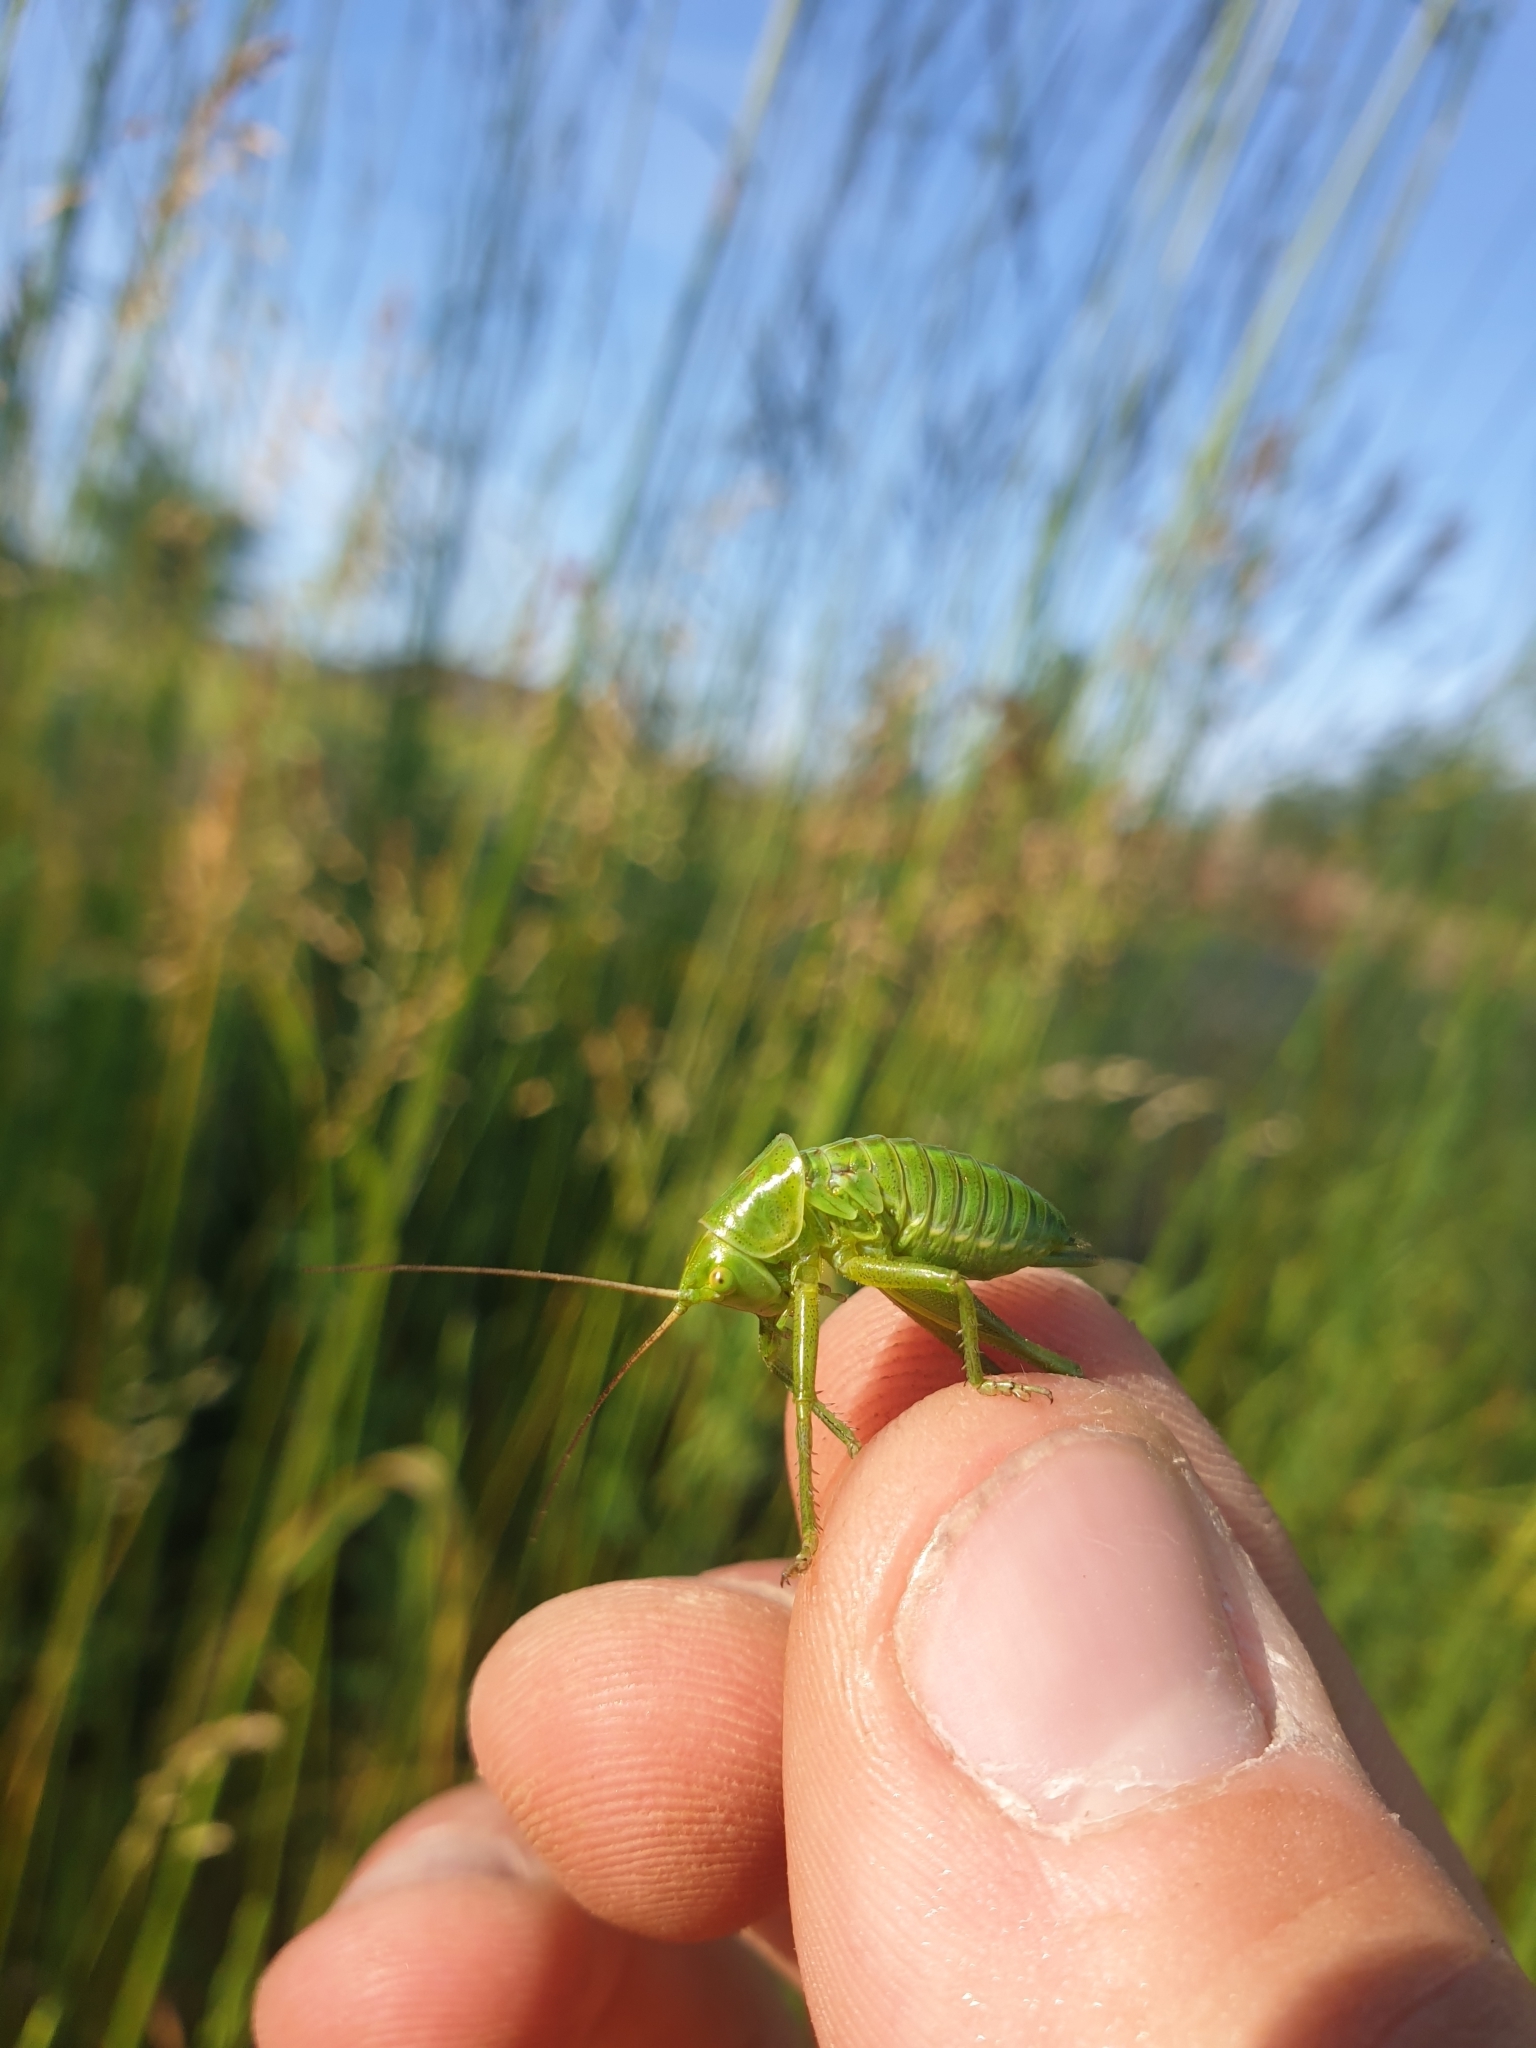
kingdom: Animalia
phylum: Arthropoda
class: Insecta
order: Orthoptera
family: Tettigoniidae
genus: Tettigonia
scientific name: Tettigonia viridissima
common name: Great green bush-cricket
